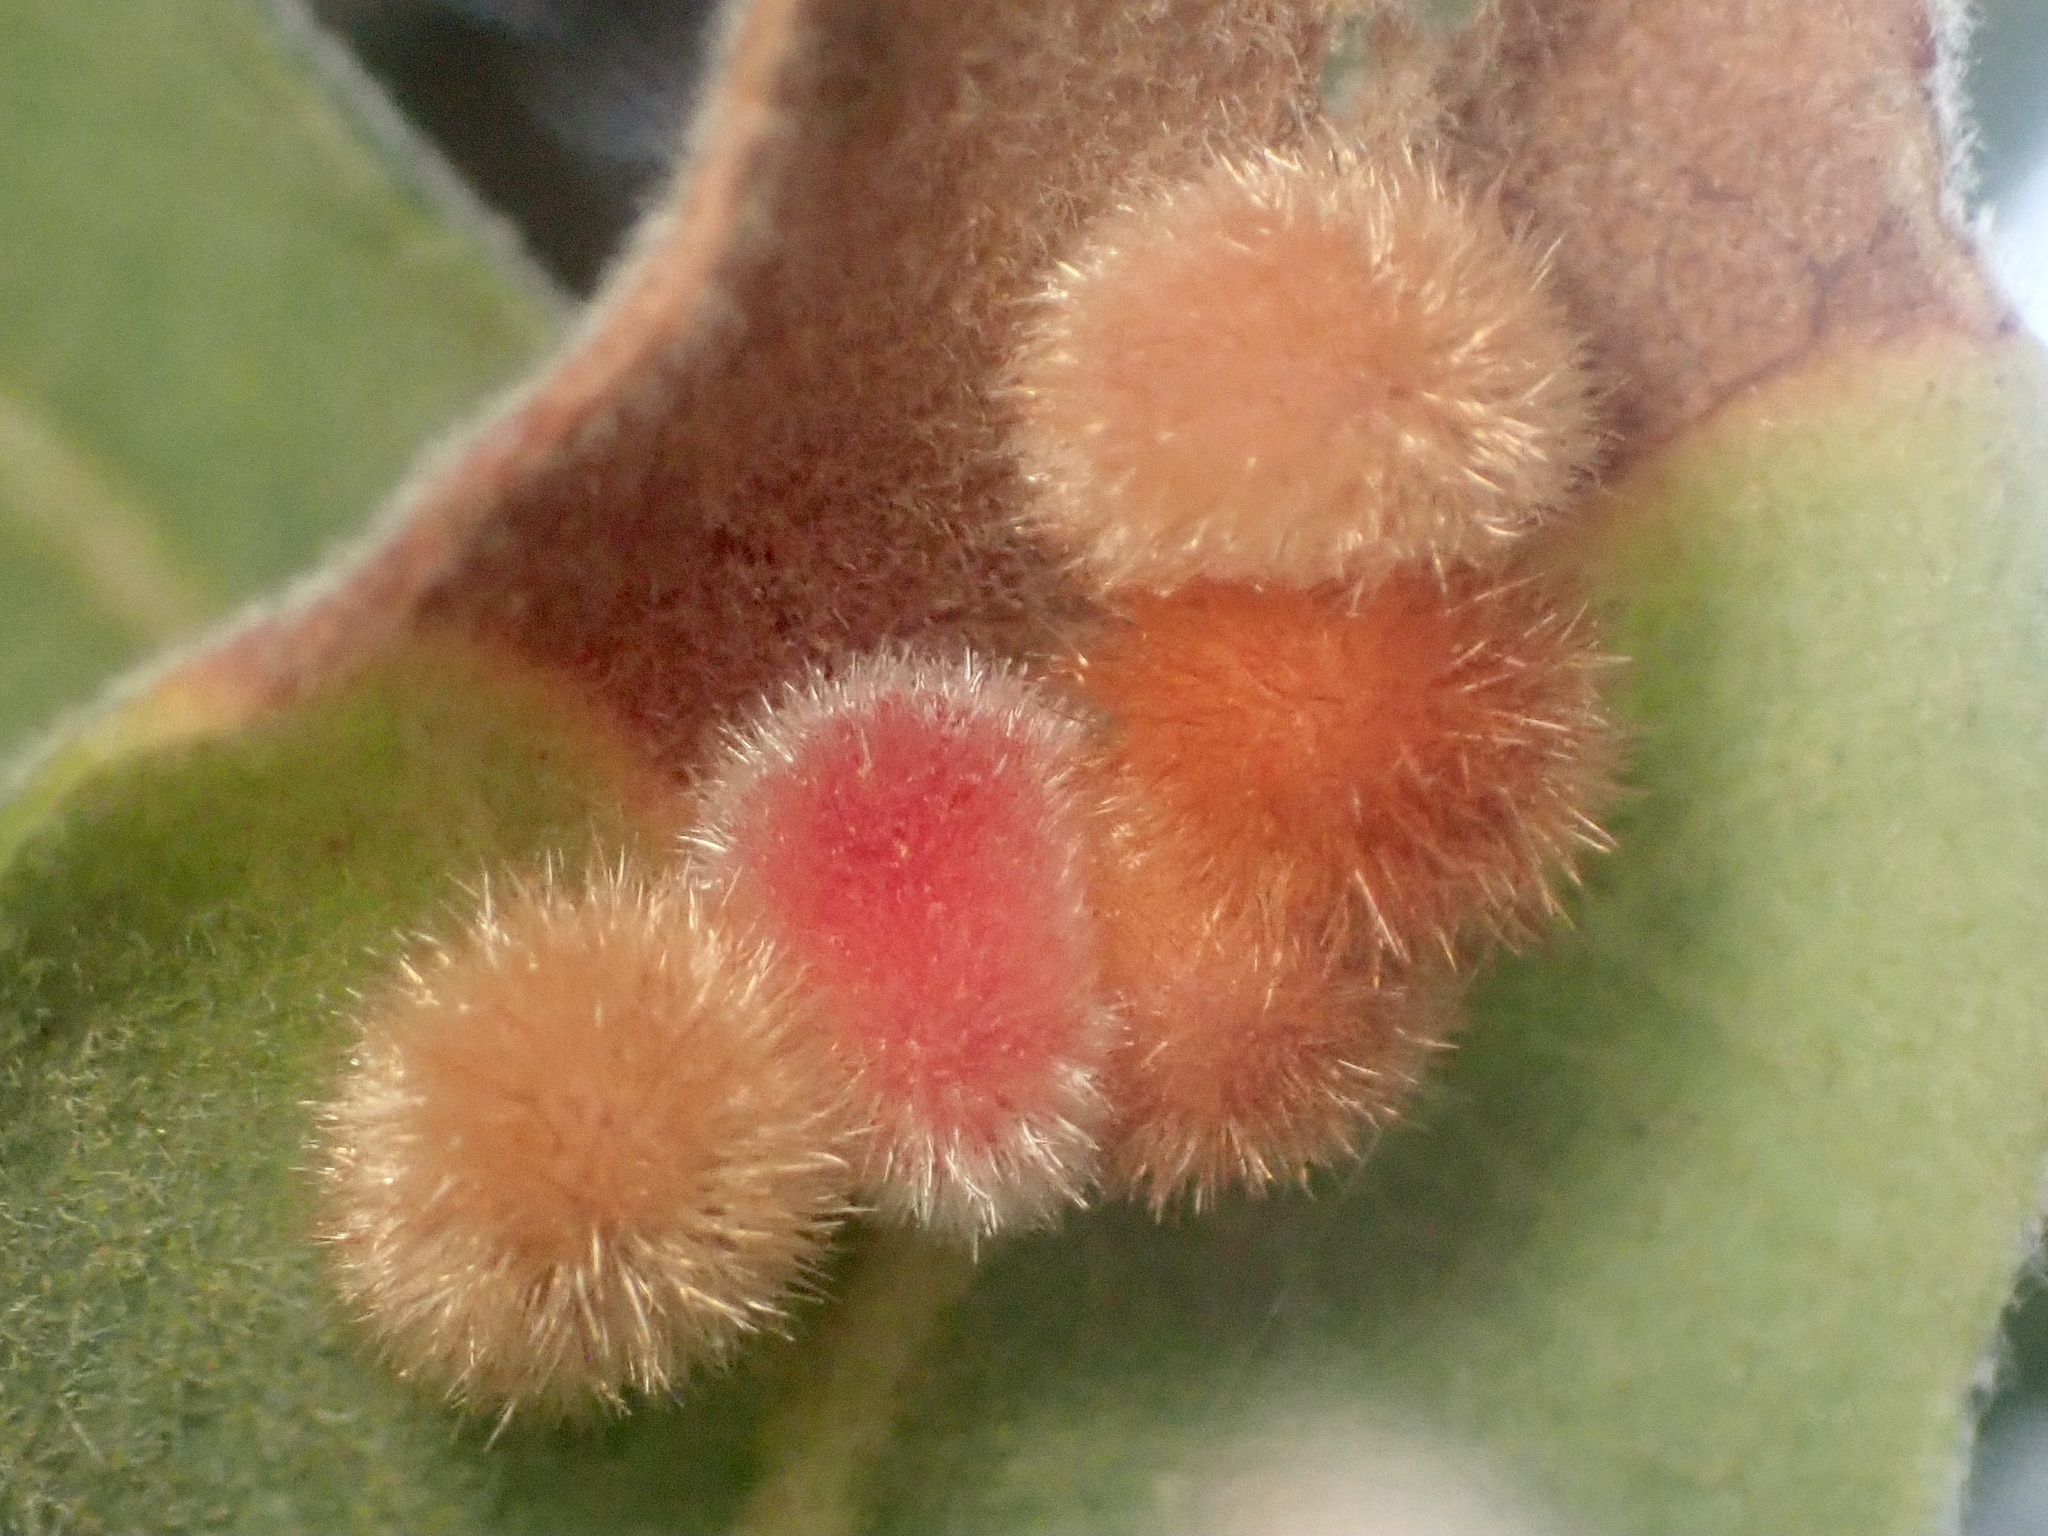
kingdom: Animalia
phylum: Arthropoda
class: Insecta
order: Hymenoptera
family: Cynipidae
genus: Atrusca
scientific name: Atrusca
